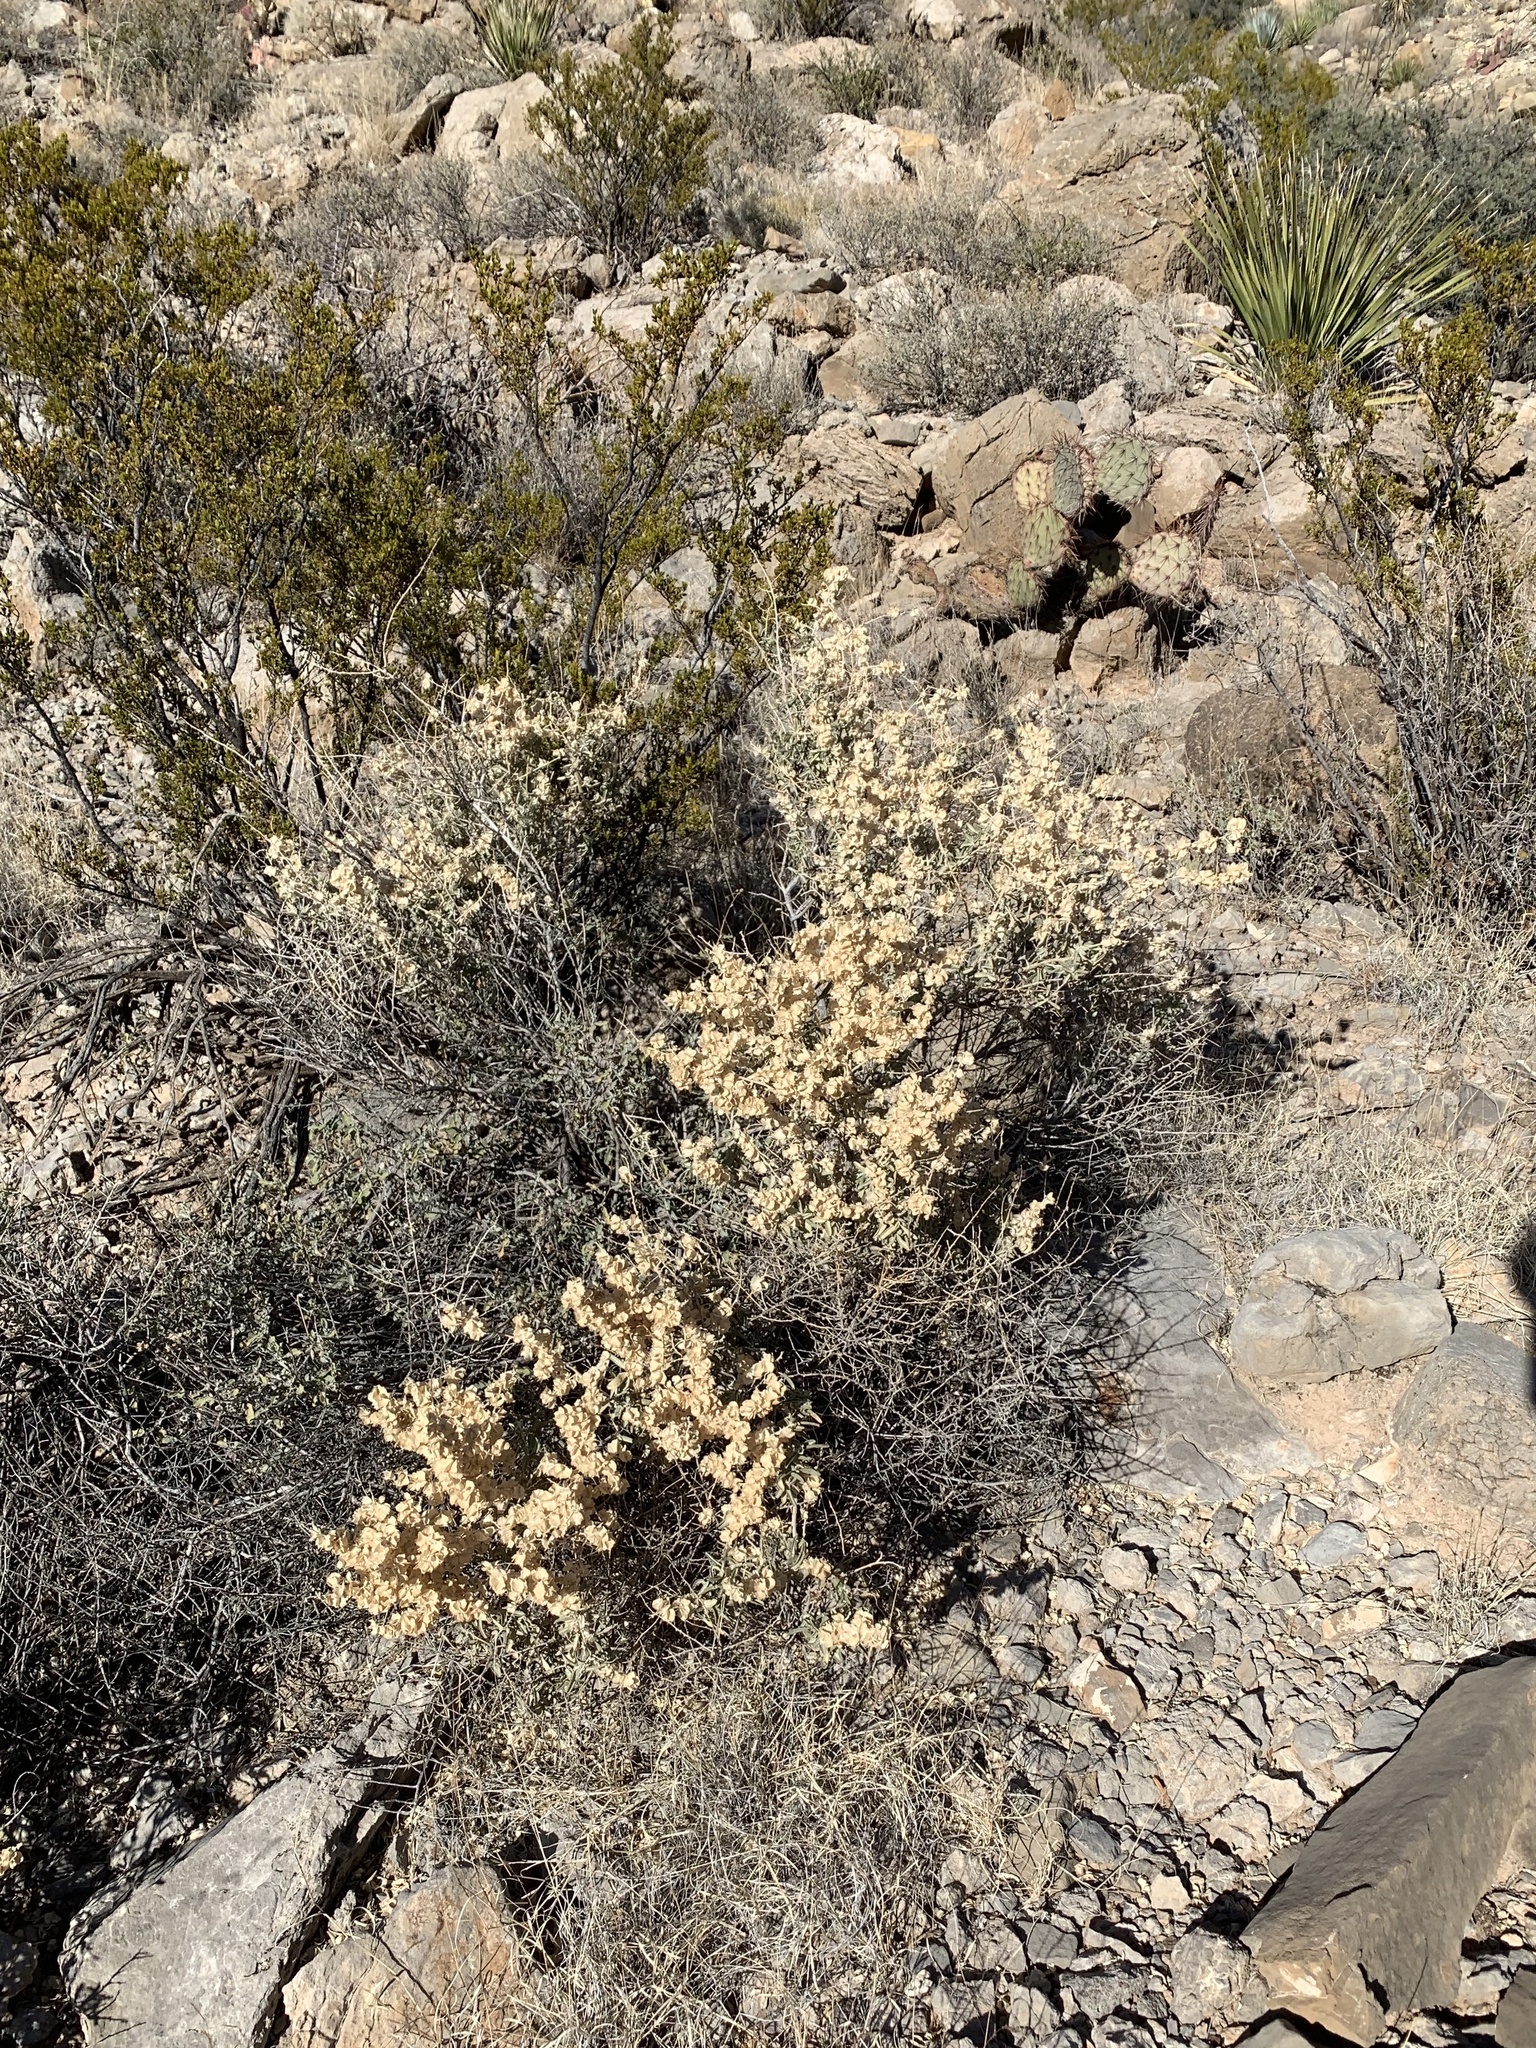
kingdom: Plantae
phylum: Tracheophyta
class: Magnoliopsida
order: Caryophyllales
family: Amaranthaceae
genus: Atriplex
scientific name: Atriplex canescens
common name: Four-wing saltbush
